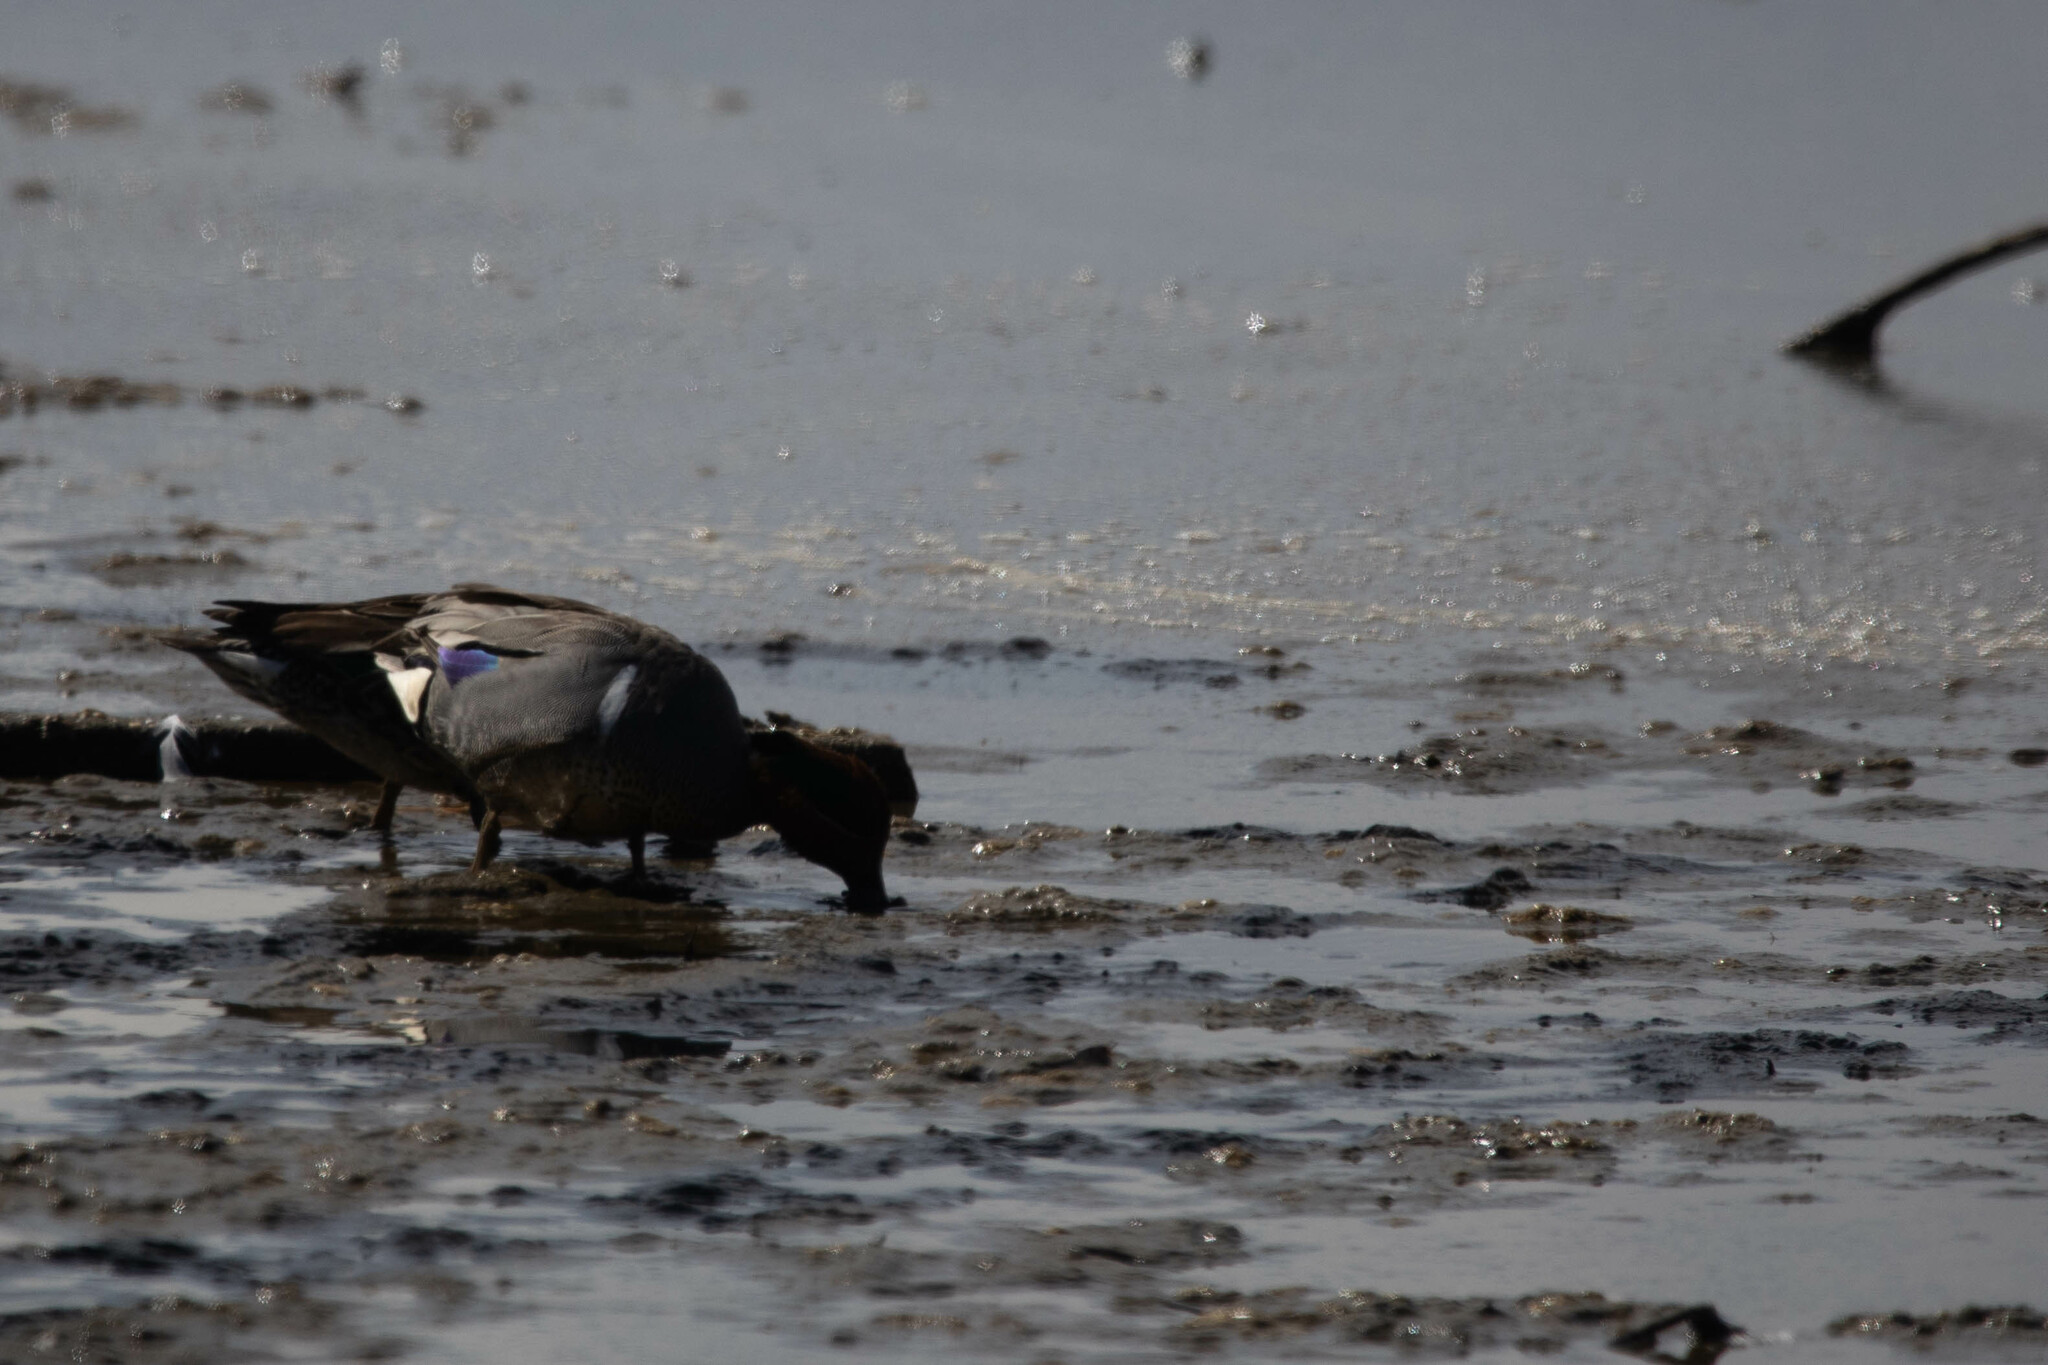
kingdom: Animalia
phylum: Chordata
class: Aves
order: Anseriformes
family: Anatidae
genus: Anas
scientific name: Anas carolinensis
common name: Green-winged teal
